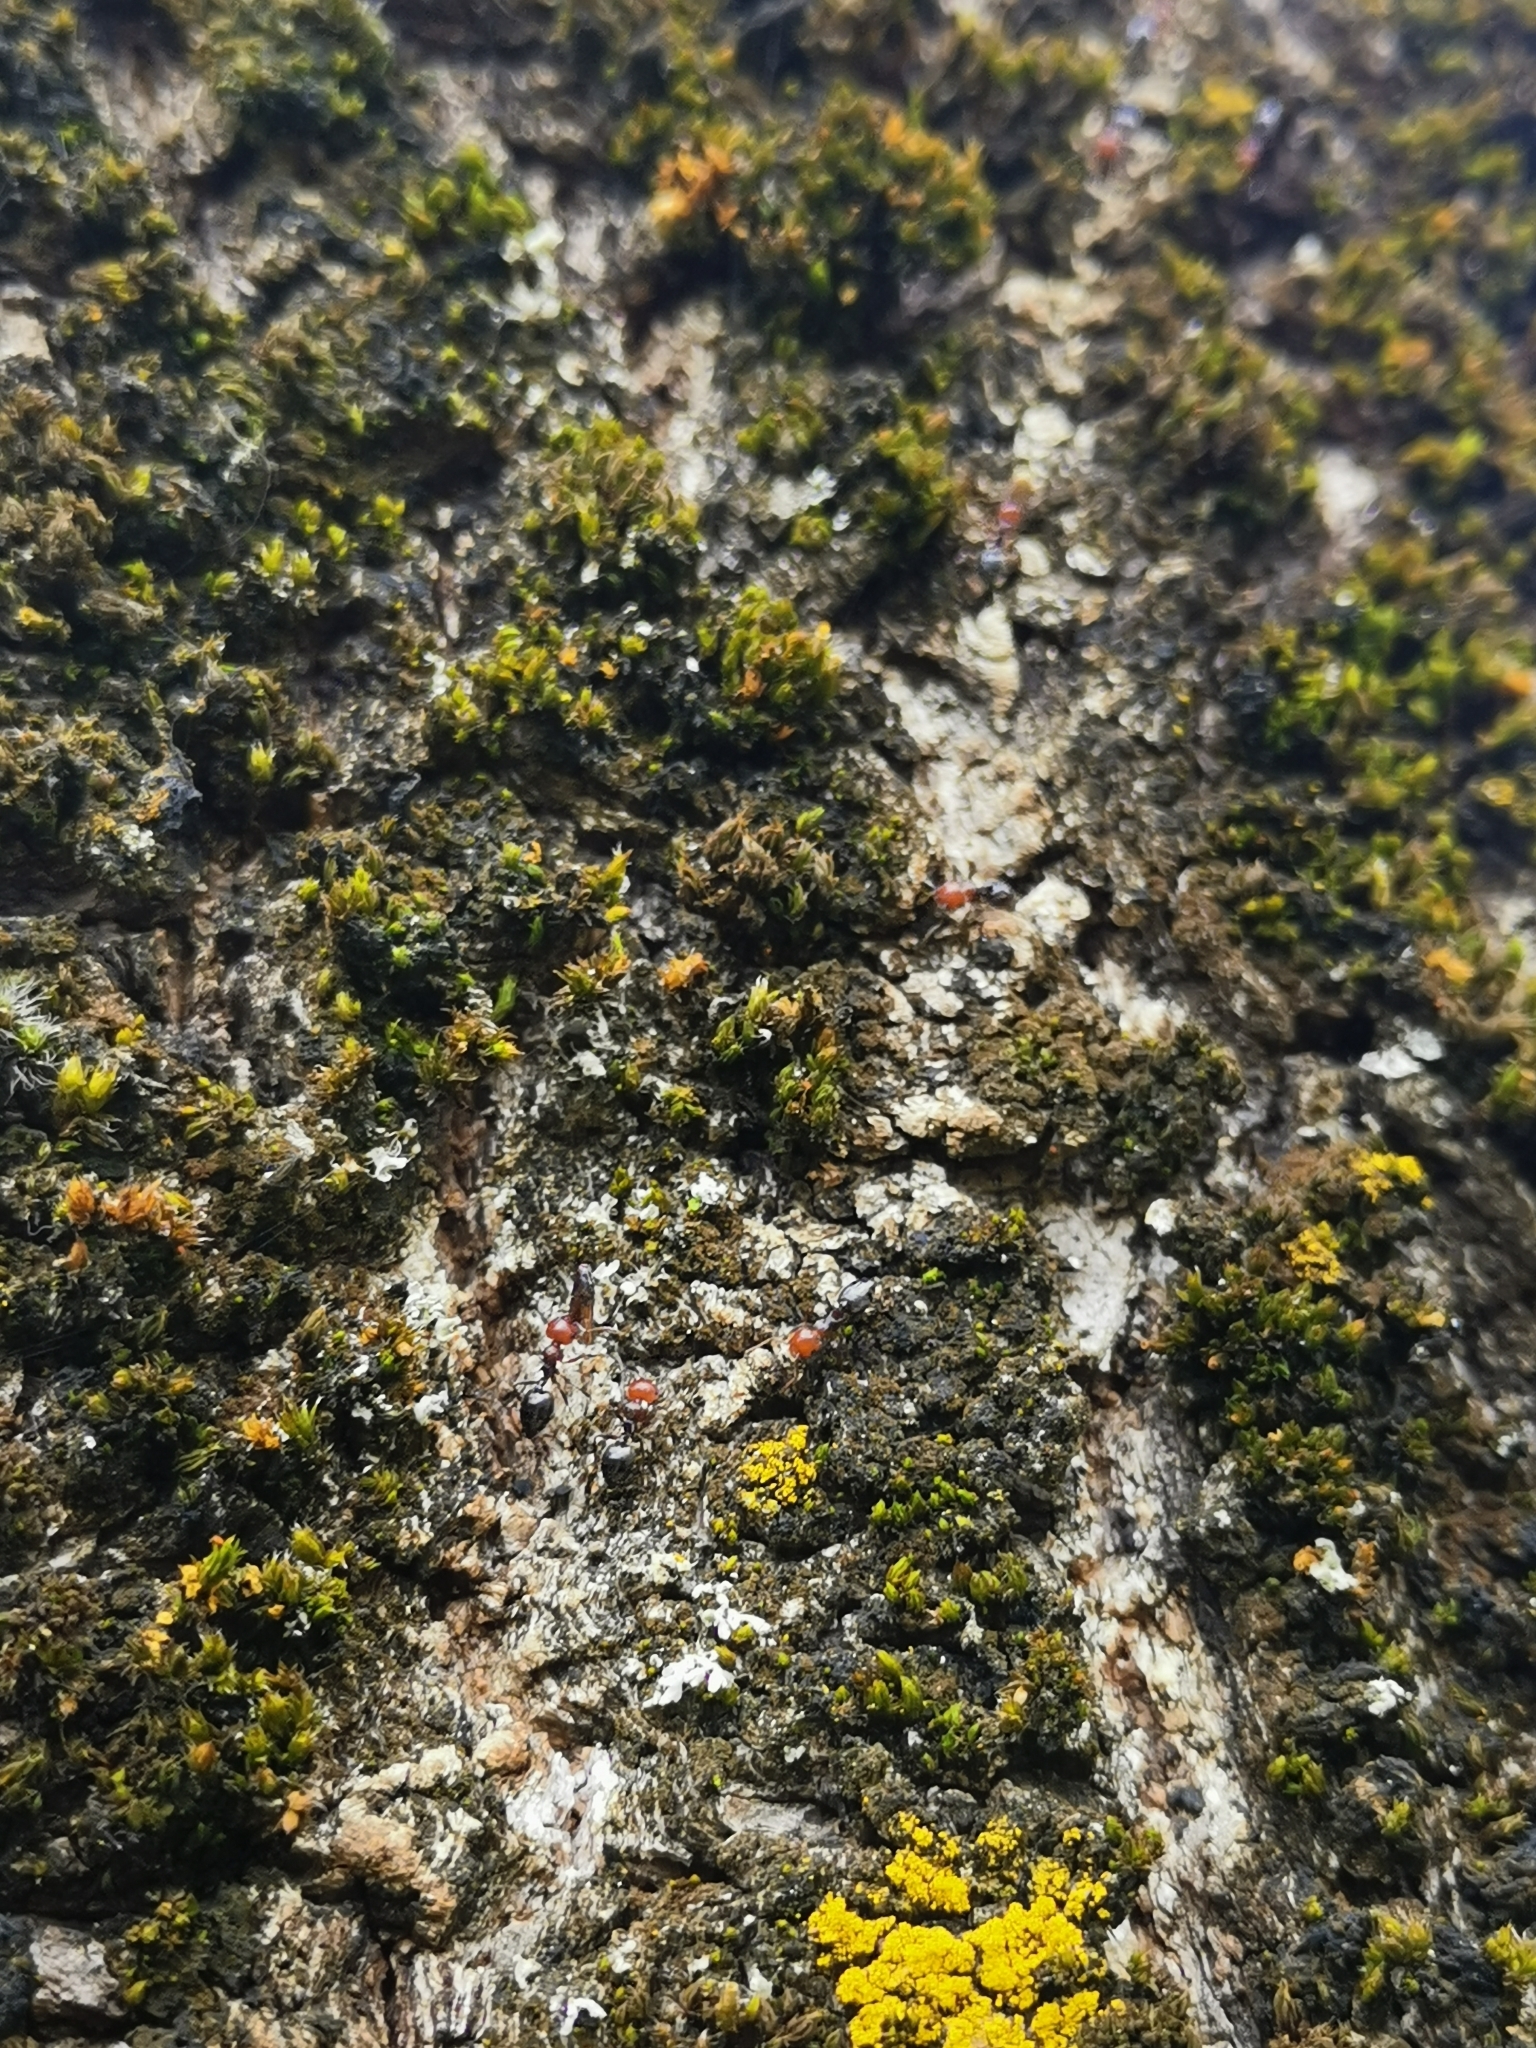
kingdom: Animalia
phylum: Arthropoda
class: Insecta
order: Hymenoptera
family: Formicidae
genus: Crematogaster
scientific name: Crematogaster scutellaris
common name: Fourmi du liège
